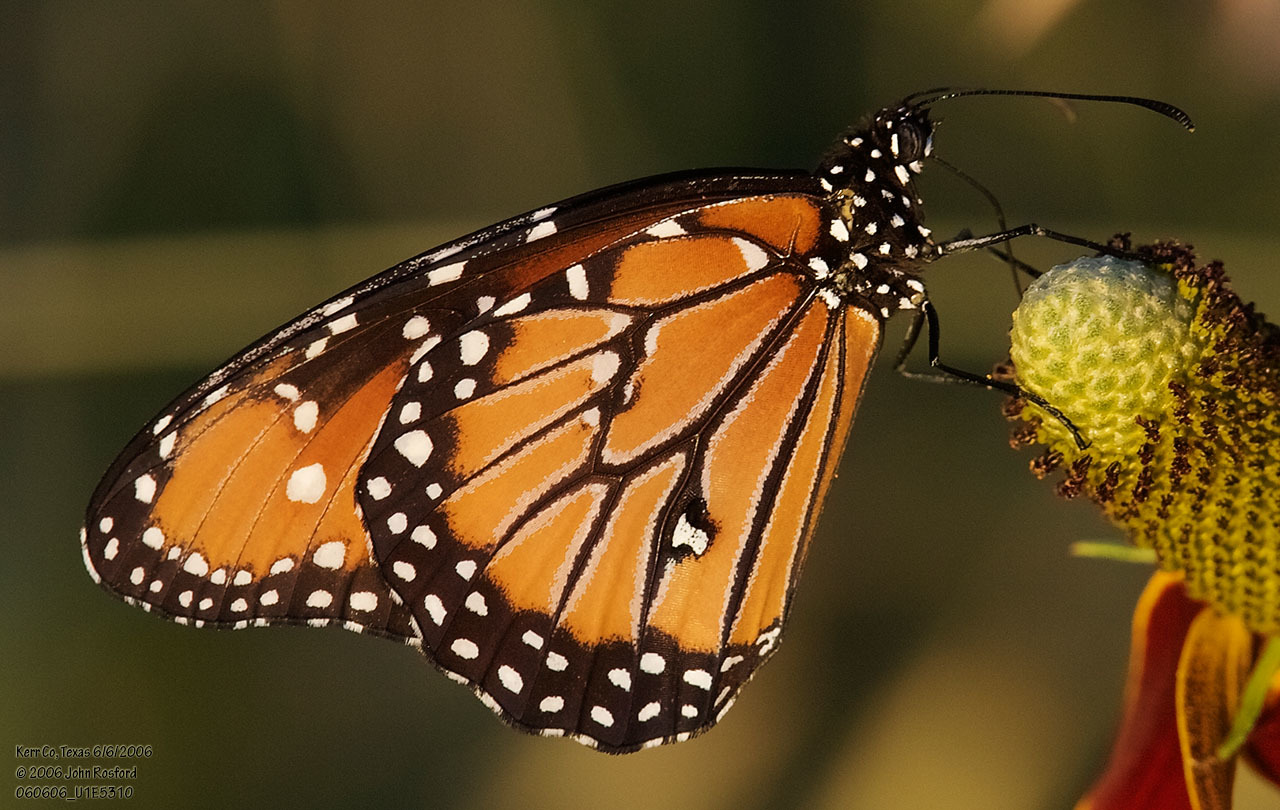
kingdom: Animalia
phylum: Arthropoda
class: Insecta
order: Lepidoptera
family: Nymphalidae
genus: Danaus
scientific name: Danaus gilippus
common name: Queen
